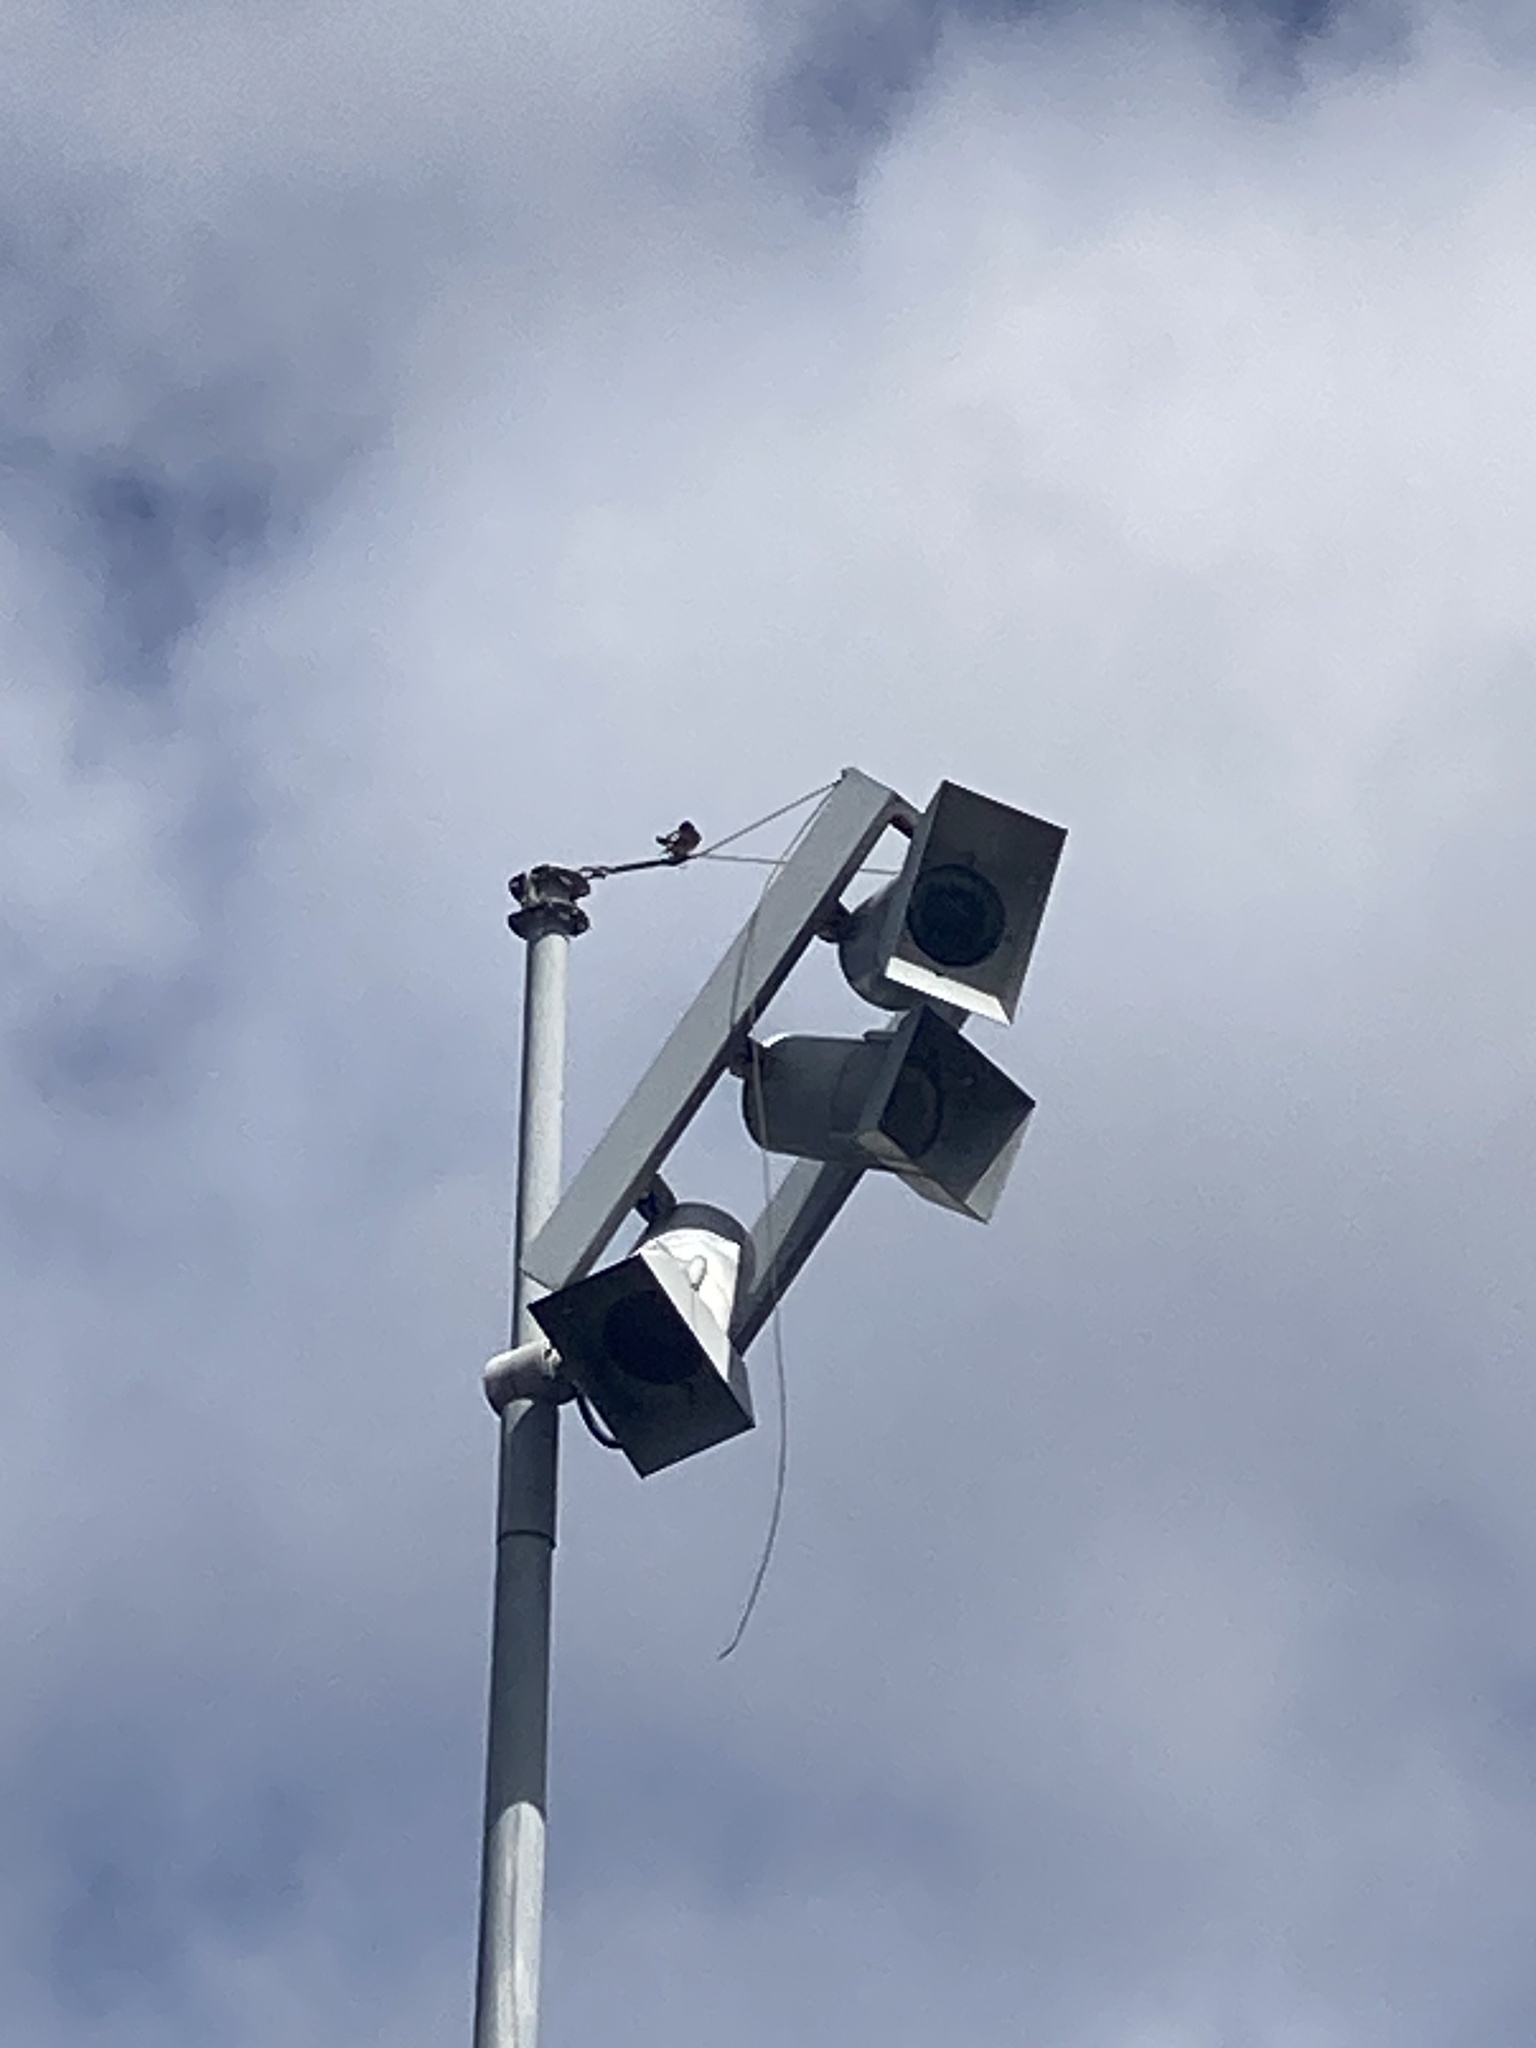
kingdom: Animalia
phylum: Chordata
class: Aves
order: Passeriformes
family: Hirundinidae
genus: Hirundo
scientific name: Hirundo neoxena
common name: Welcome swallow
